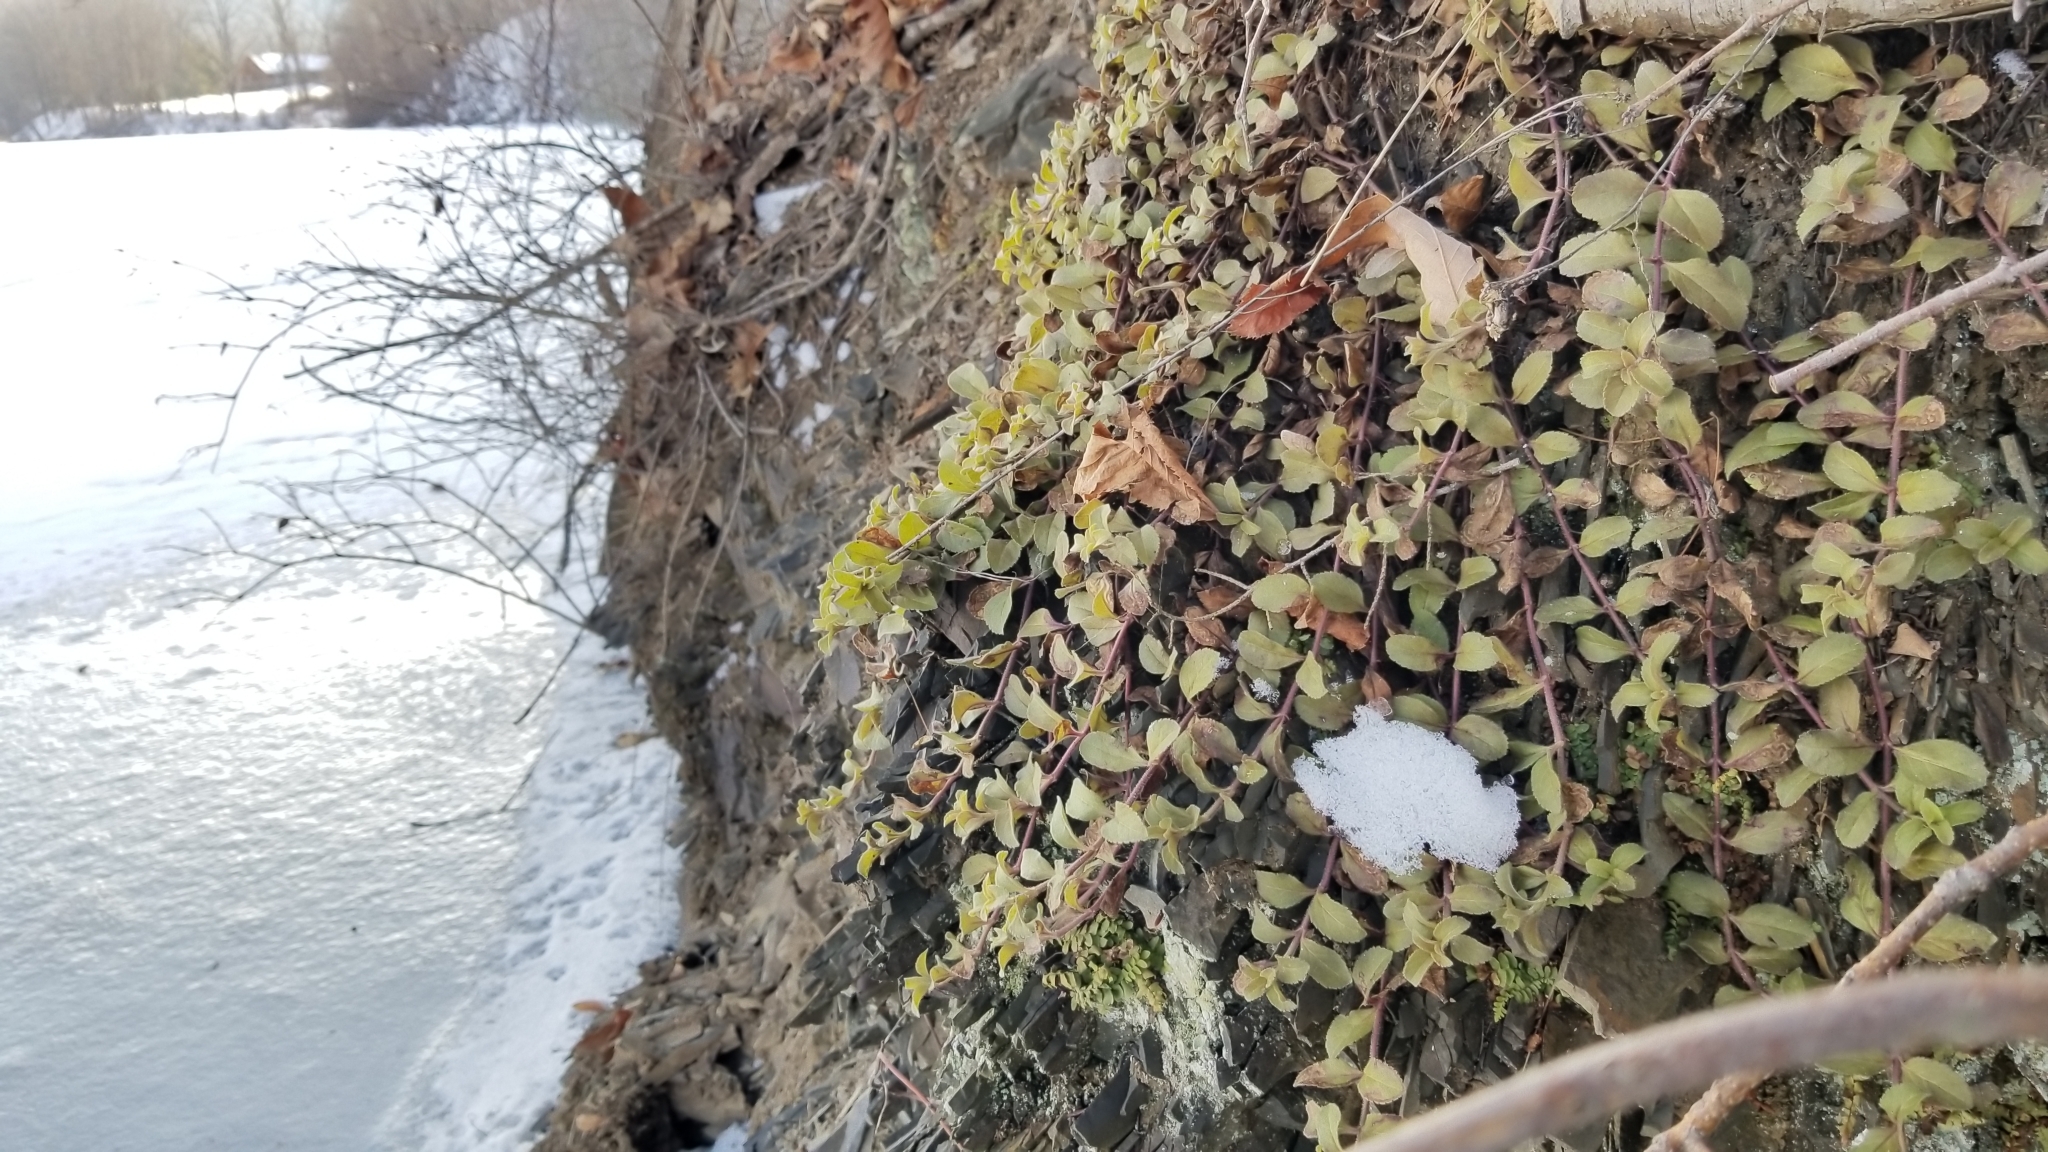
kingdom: Plantae
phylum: Tracheophyta
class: Magnoliopsida
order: Lamiales
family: Plantaginaceae
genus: Veronica
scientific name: Veronica officinalis
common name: Common speedwell
